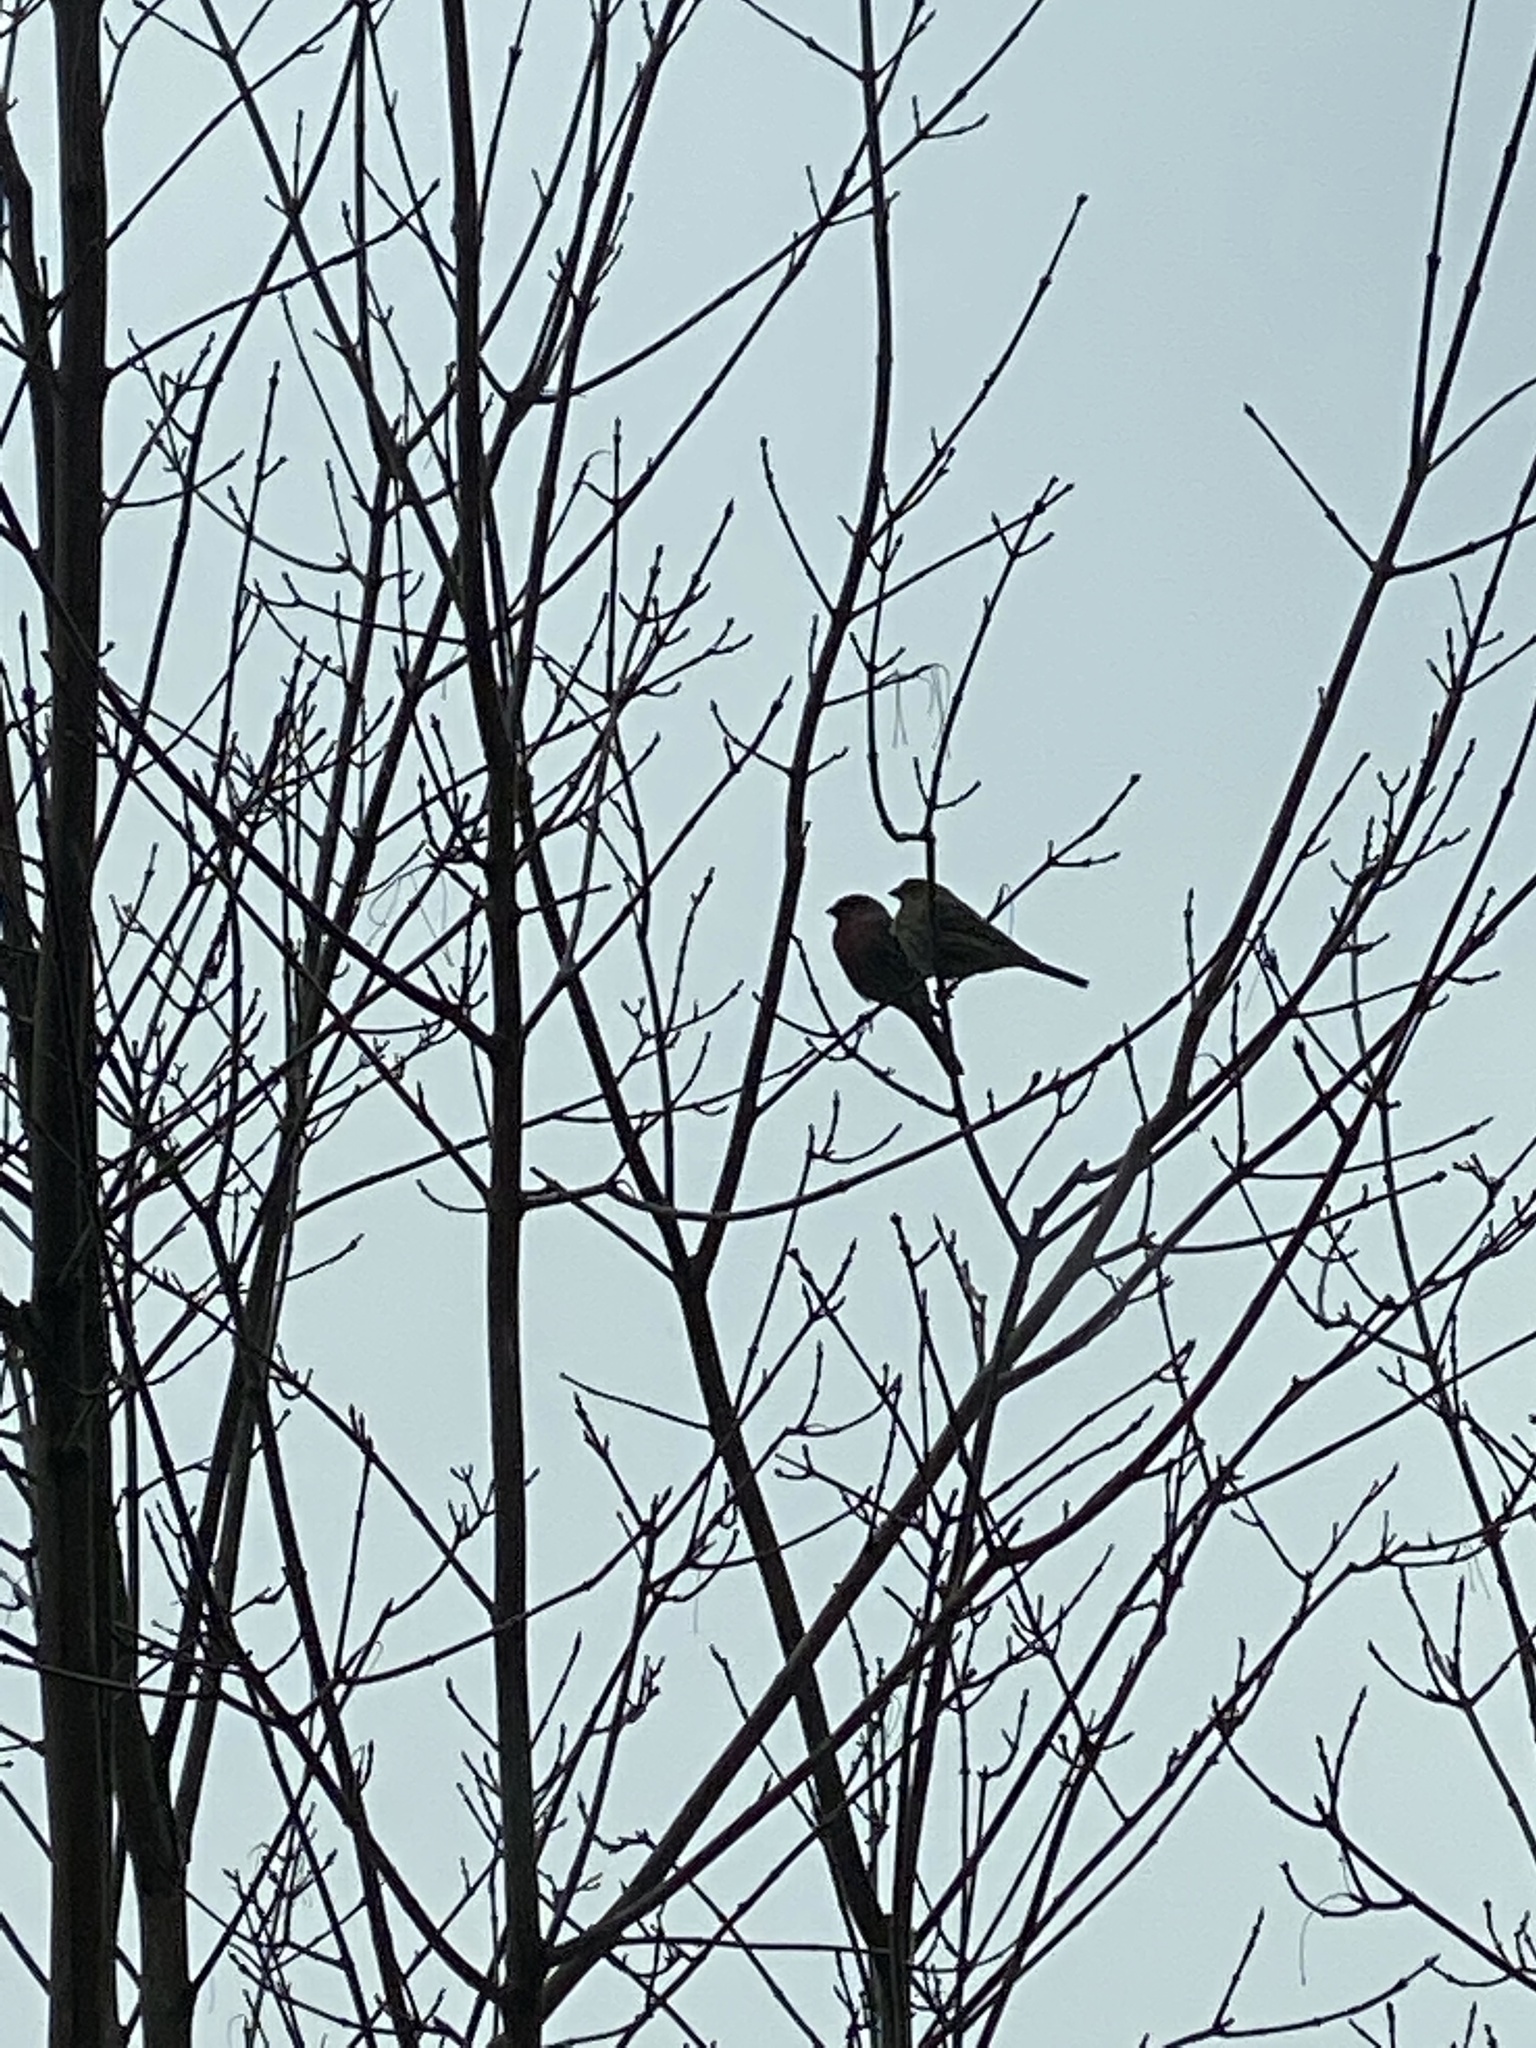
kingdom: Animalia
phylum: Chordata
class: Aves
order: Passeriformes
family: Fringillidae
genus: Haemorhous
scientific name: Haemorhous mexicanus
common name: House finch
